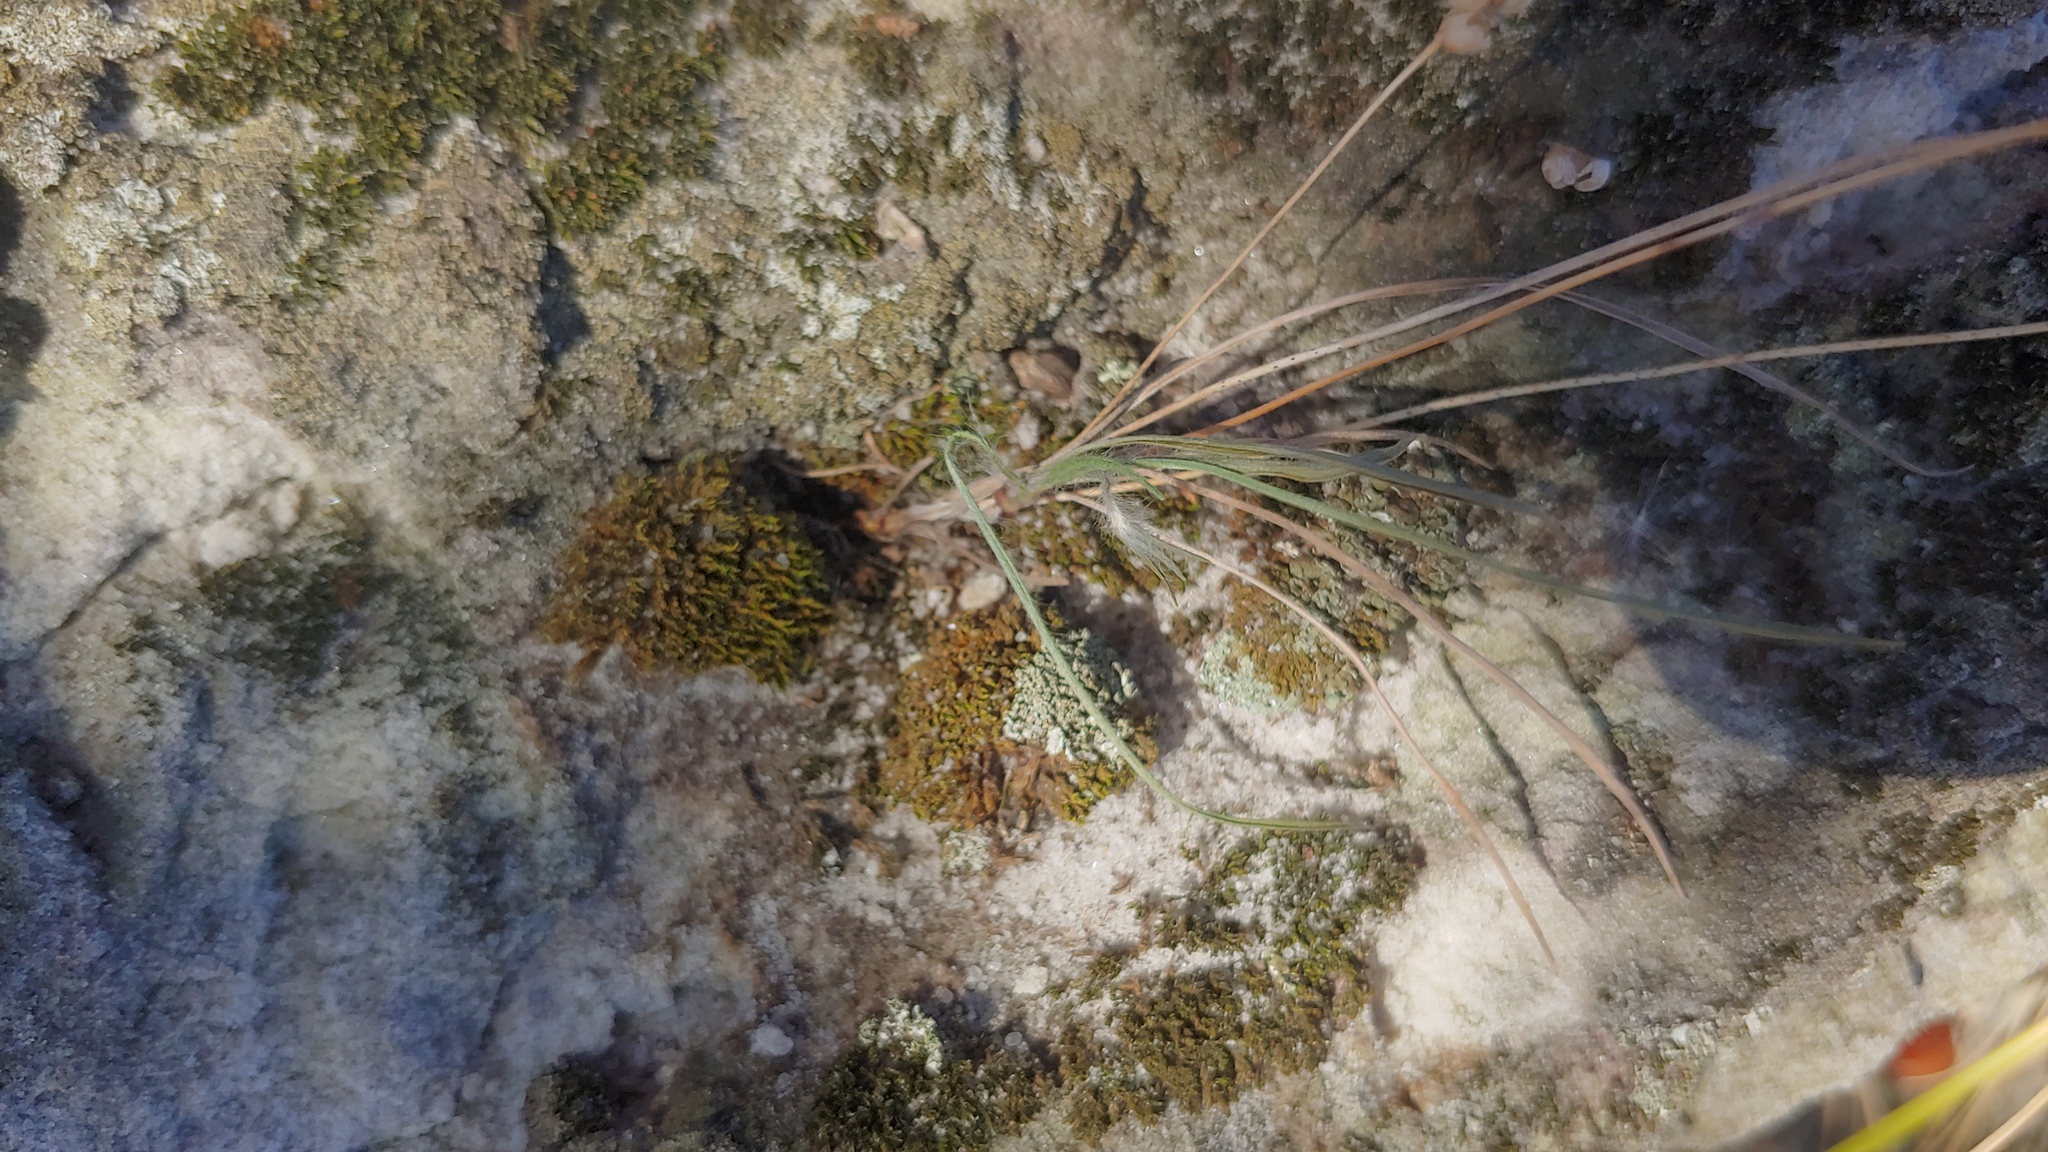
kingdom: Plantae
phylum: Tracheophyta
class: Magnoliopsida
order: Lamiales
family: Plantaginaceae
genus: Plantago
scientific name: Plantago patagonica
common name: Patagonia indian-wheat
